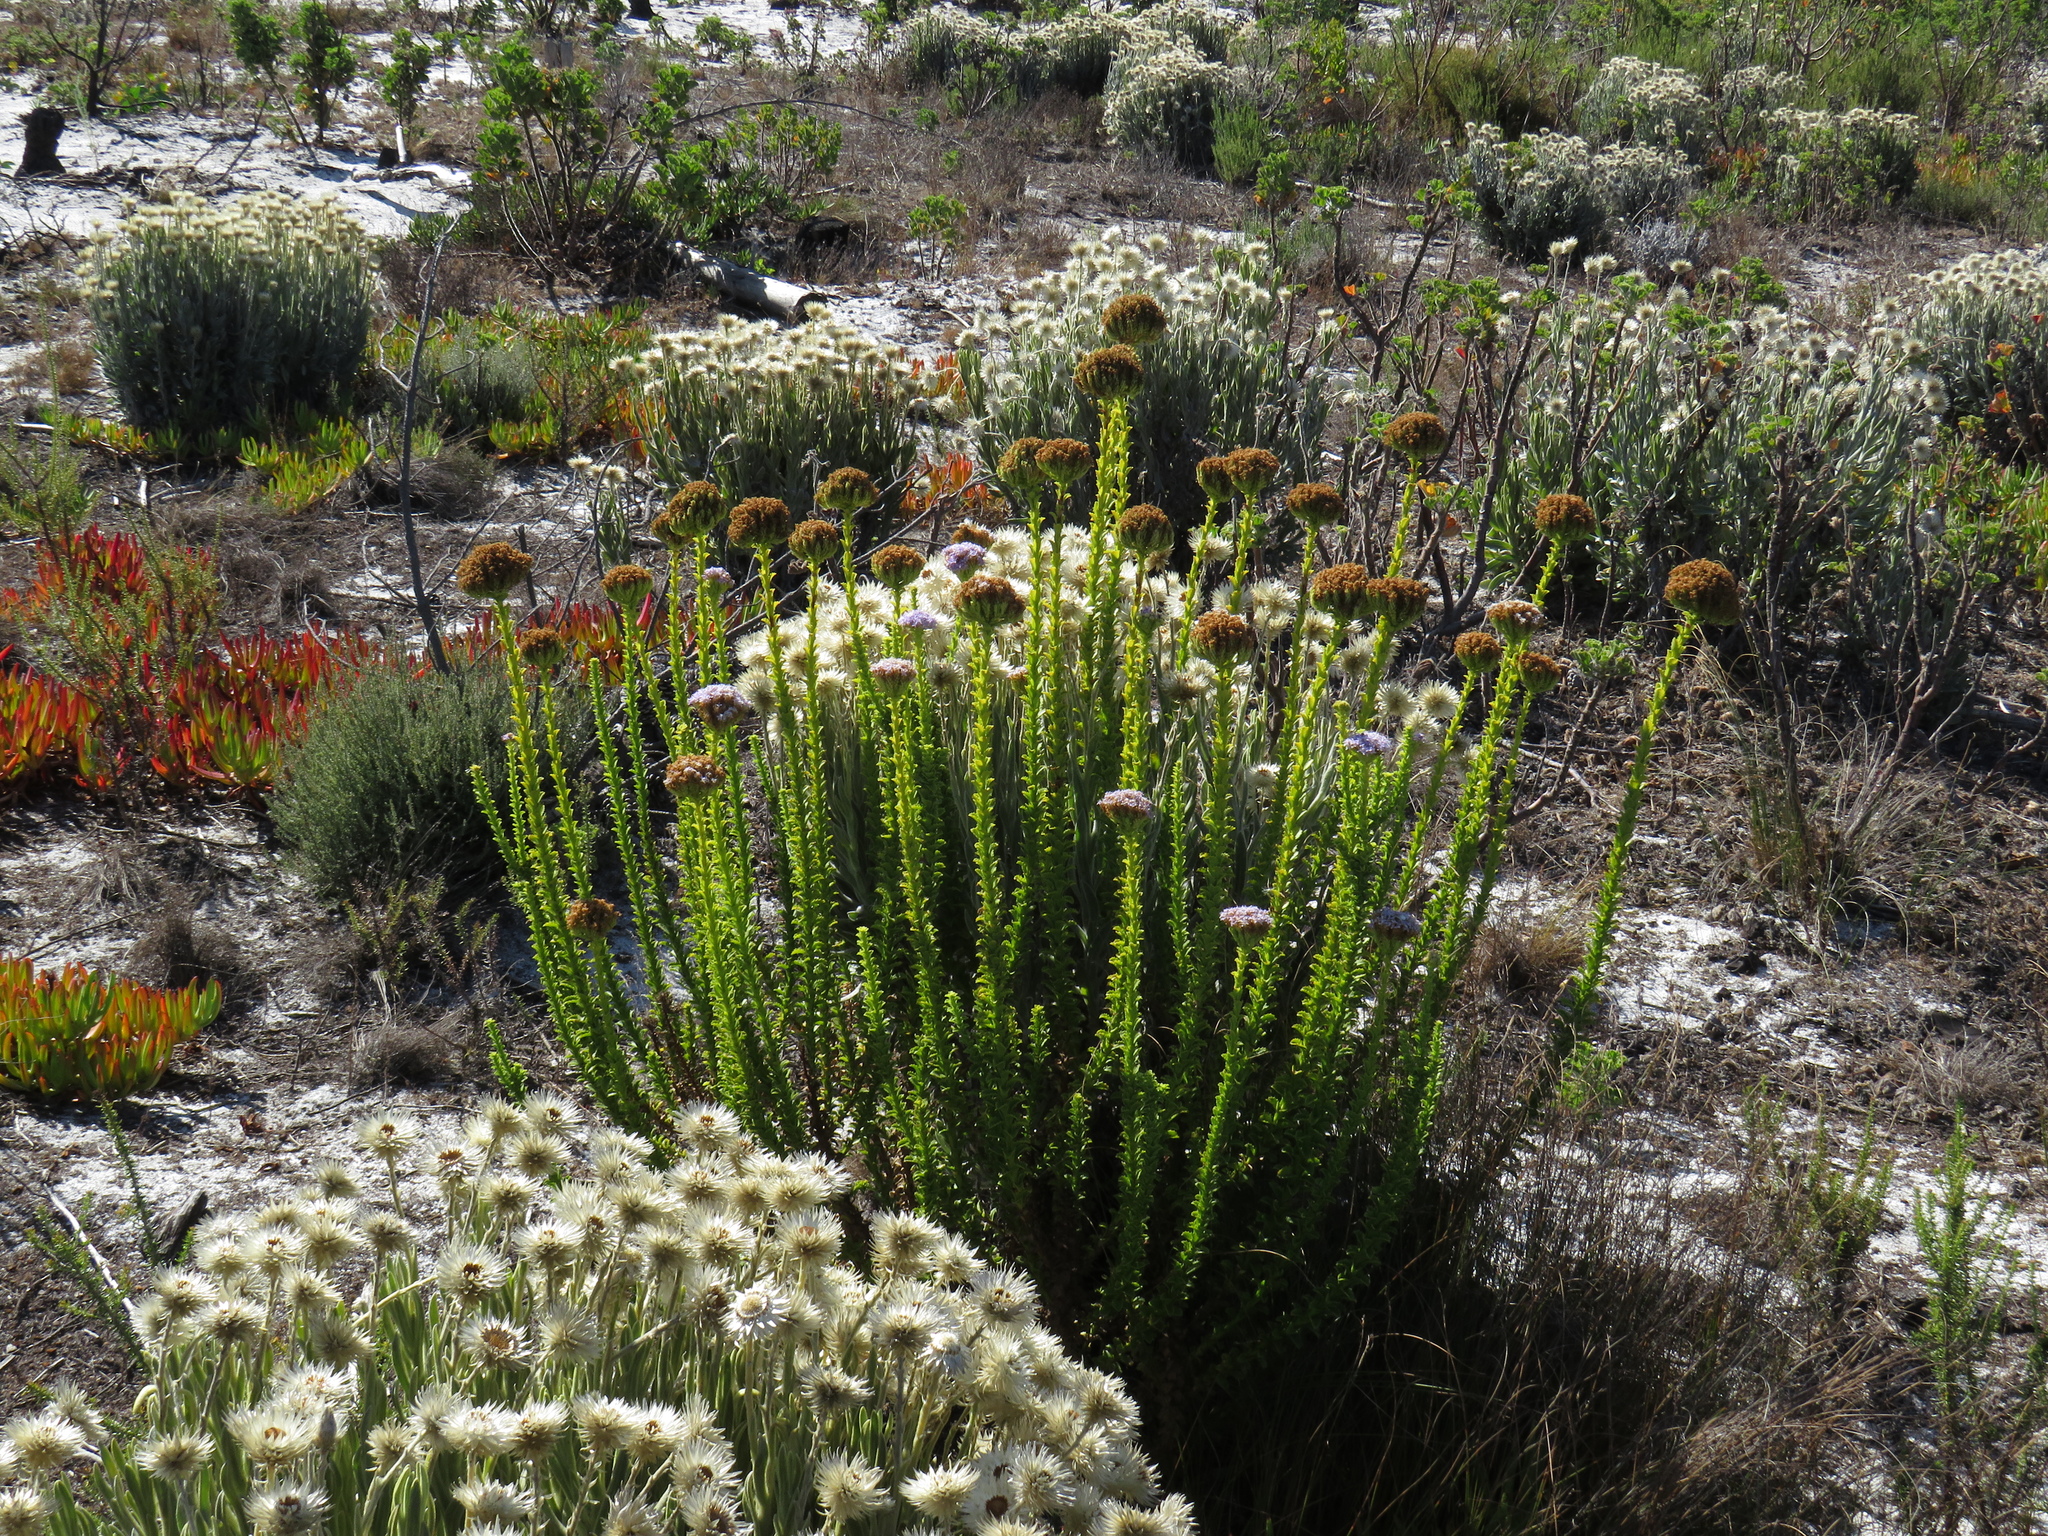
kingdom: Plantae
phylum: Tracheophyta
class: Magnoliopsida
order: Lamiales
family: Scrophulariaceae
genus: Pseudoselago
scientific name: Pseudoselago serrata
